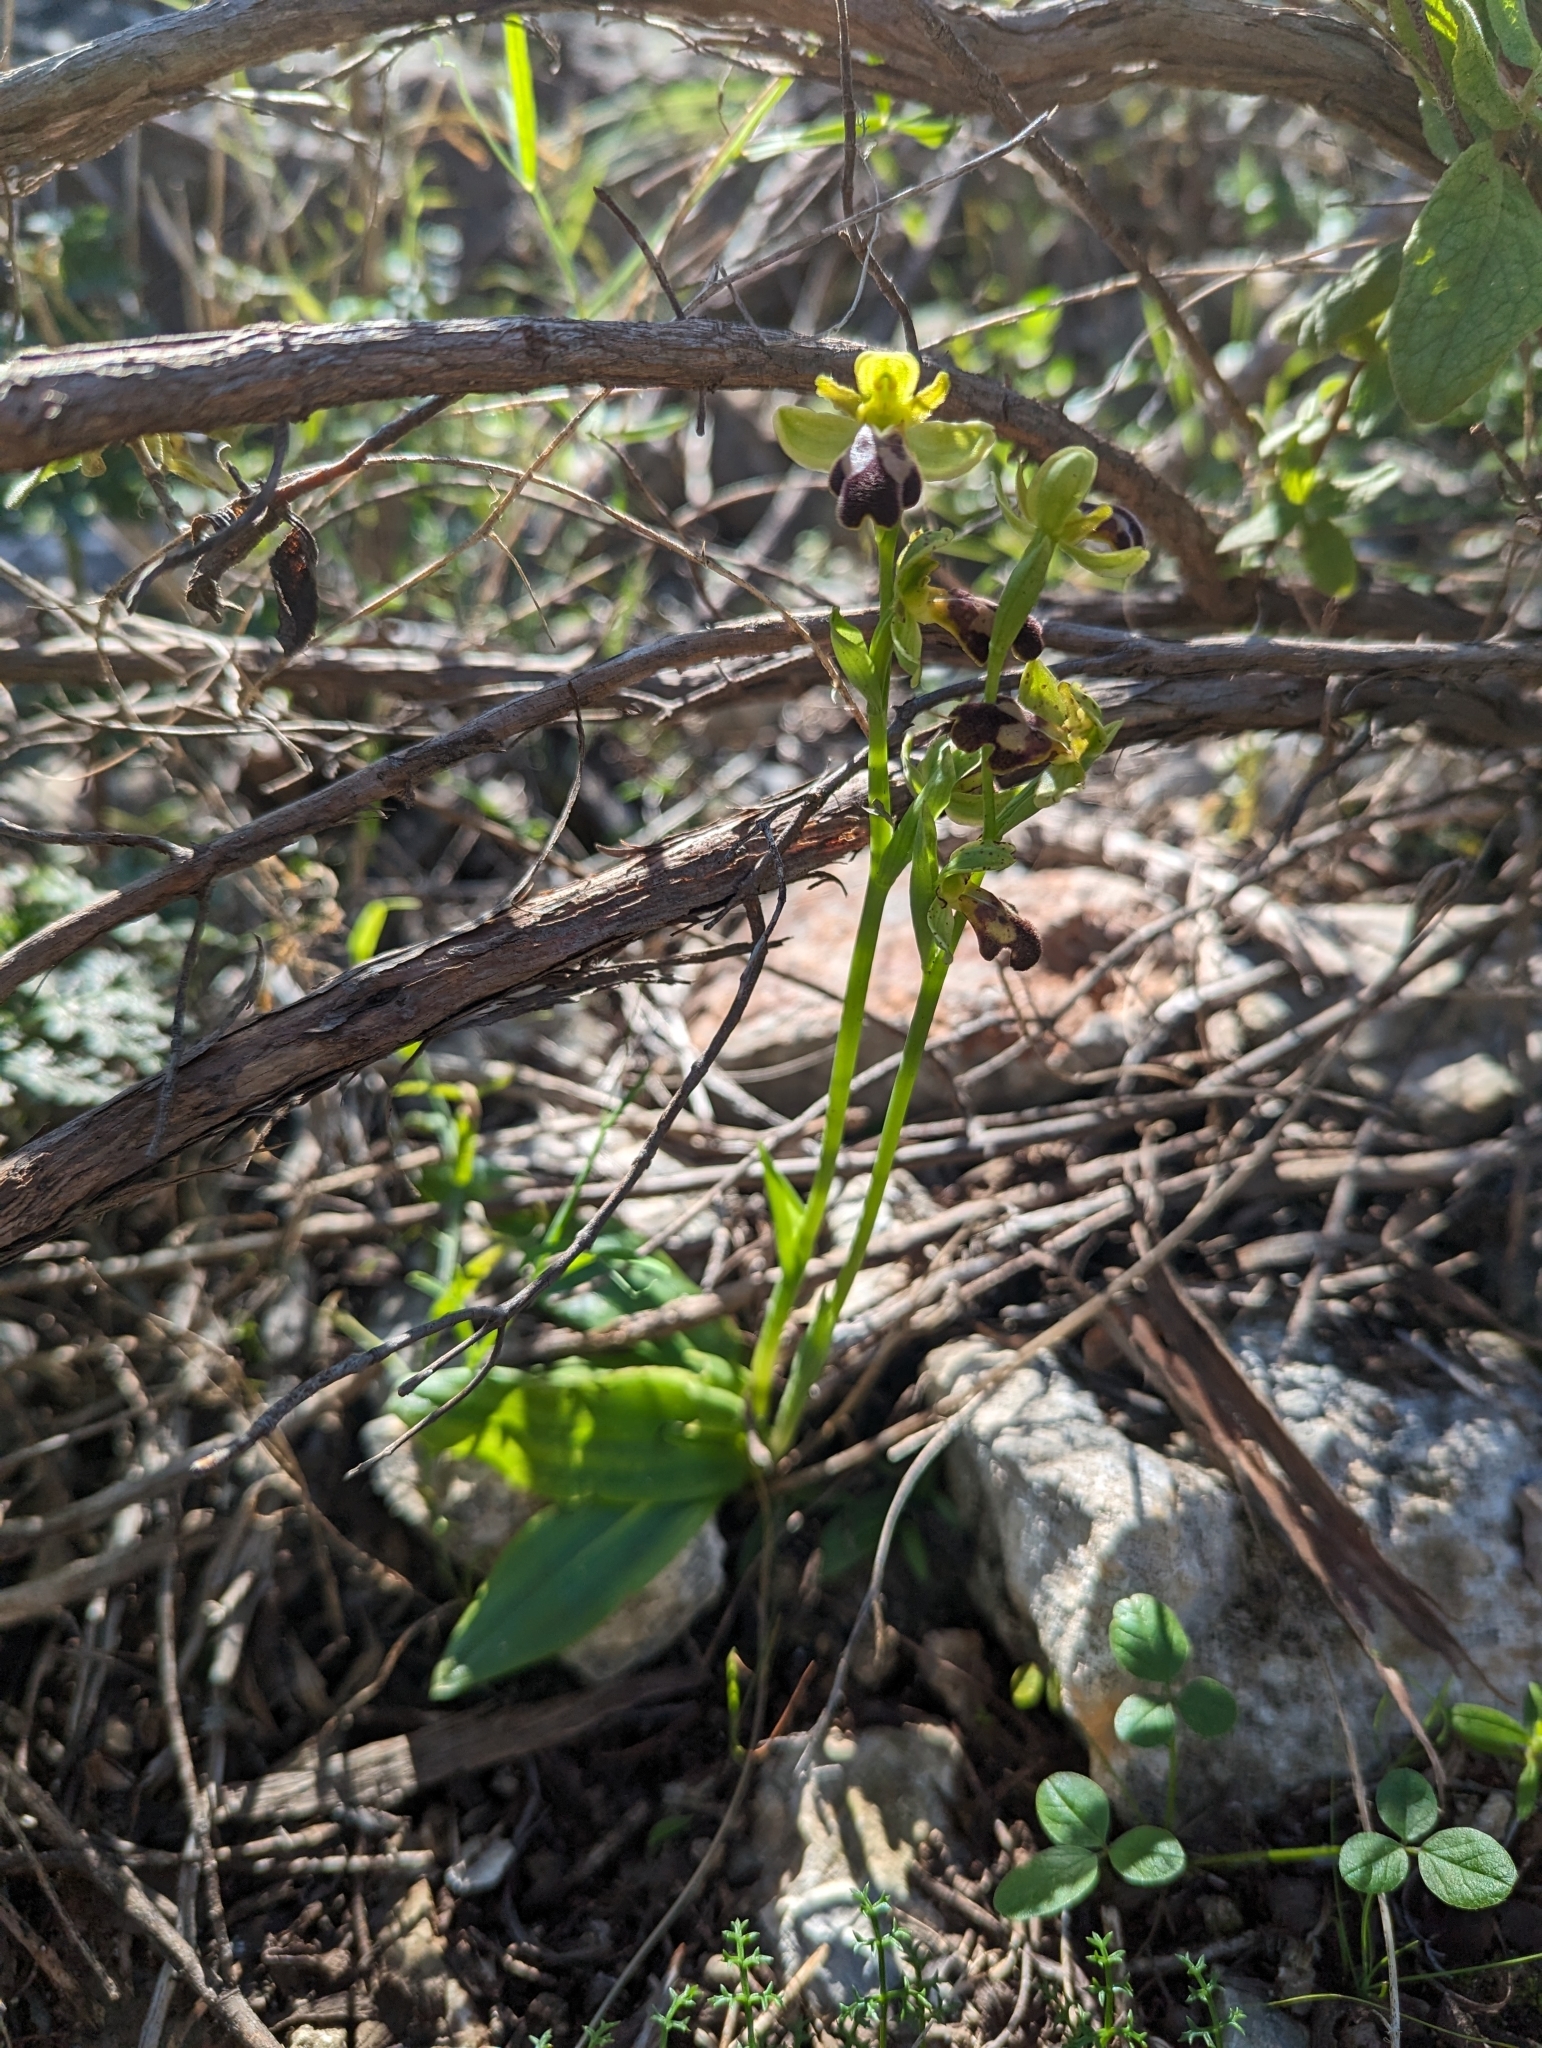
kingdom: Plantae
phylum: Tracheophyta
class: Liliopsida
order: Asparagales
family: Orchidaceae
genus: Ophrys
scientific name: Ophrys fusca
